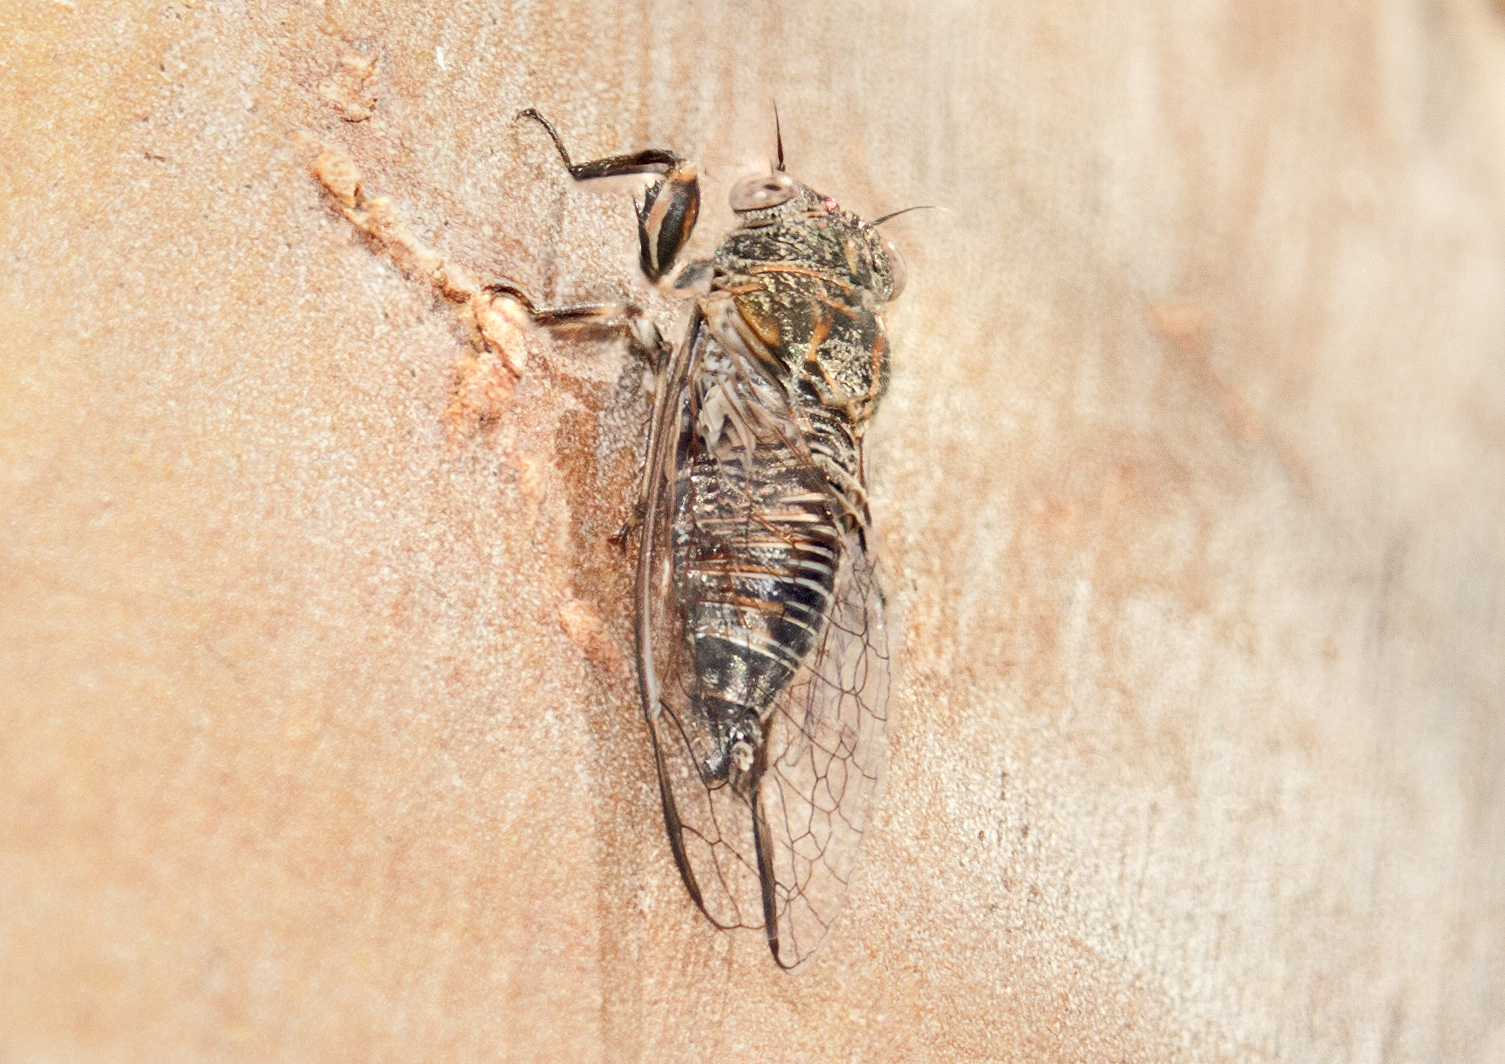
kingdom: Animalia
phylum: Arthropoda
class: Insecta
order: Hemiptera
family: Cicadidae
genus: Falcatpsalta
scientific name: Falcatpsalta aquila
